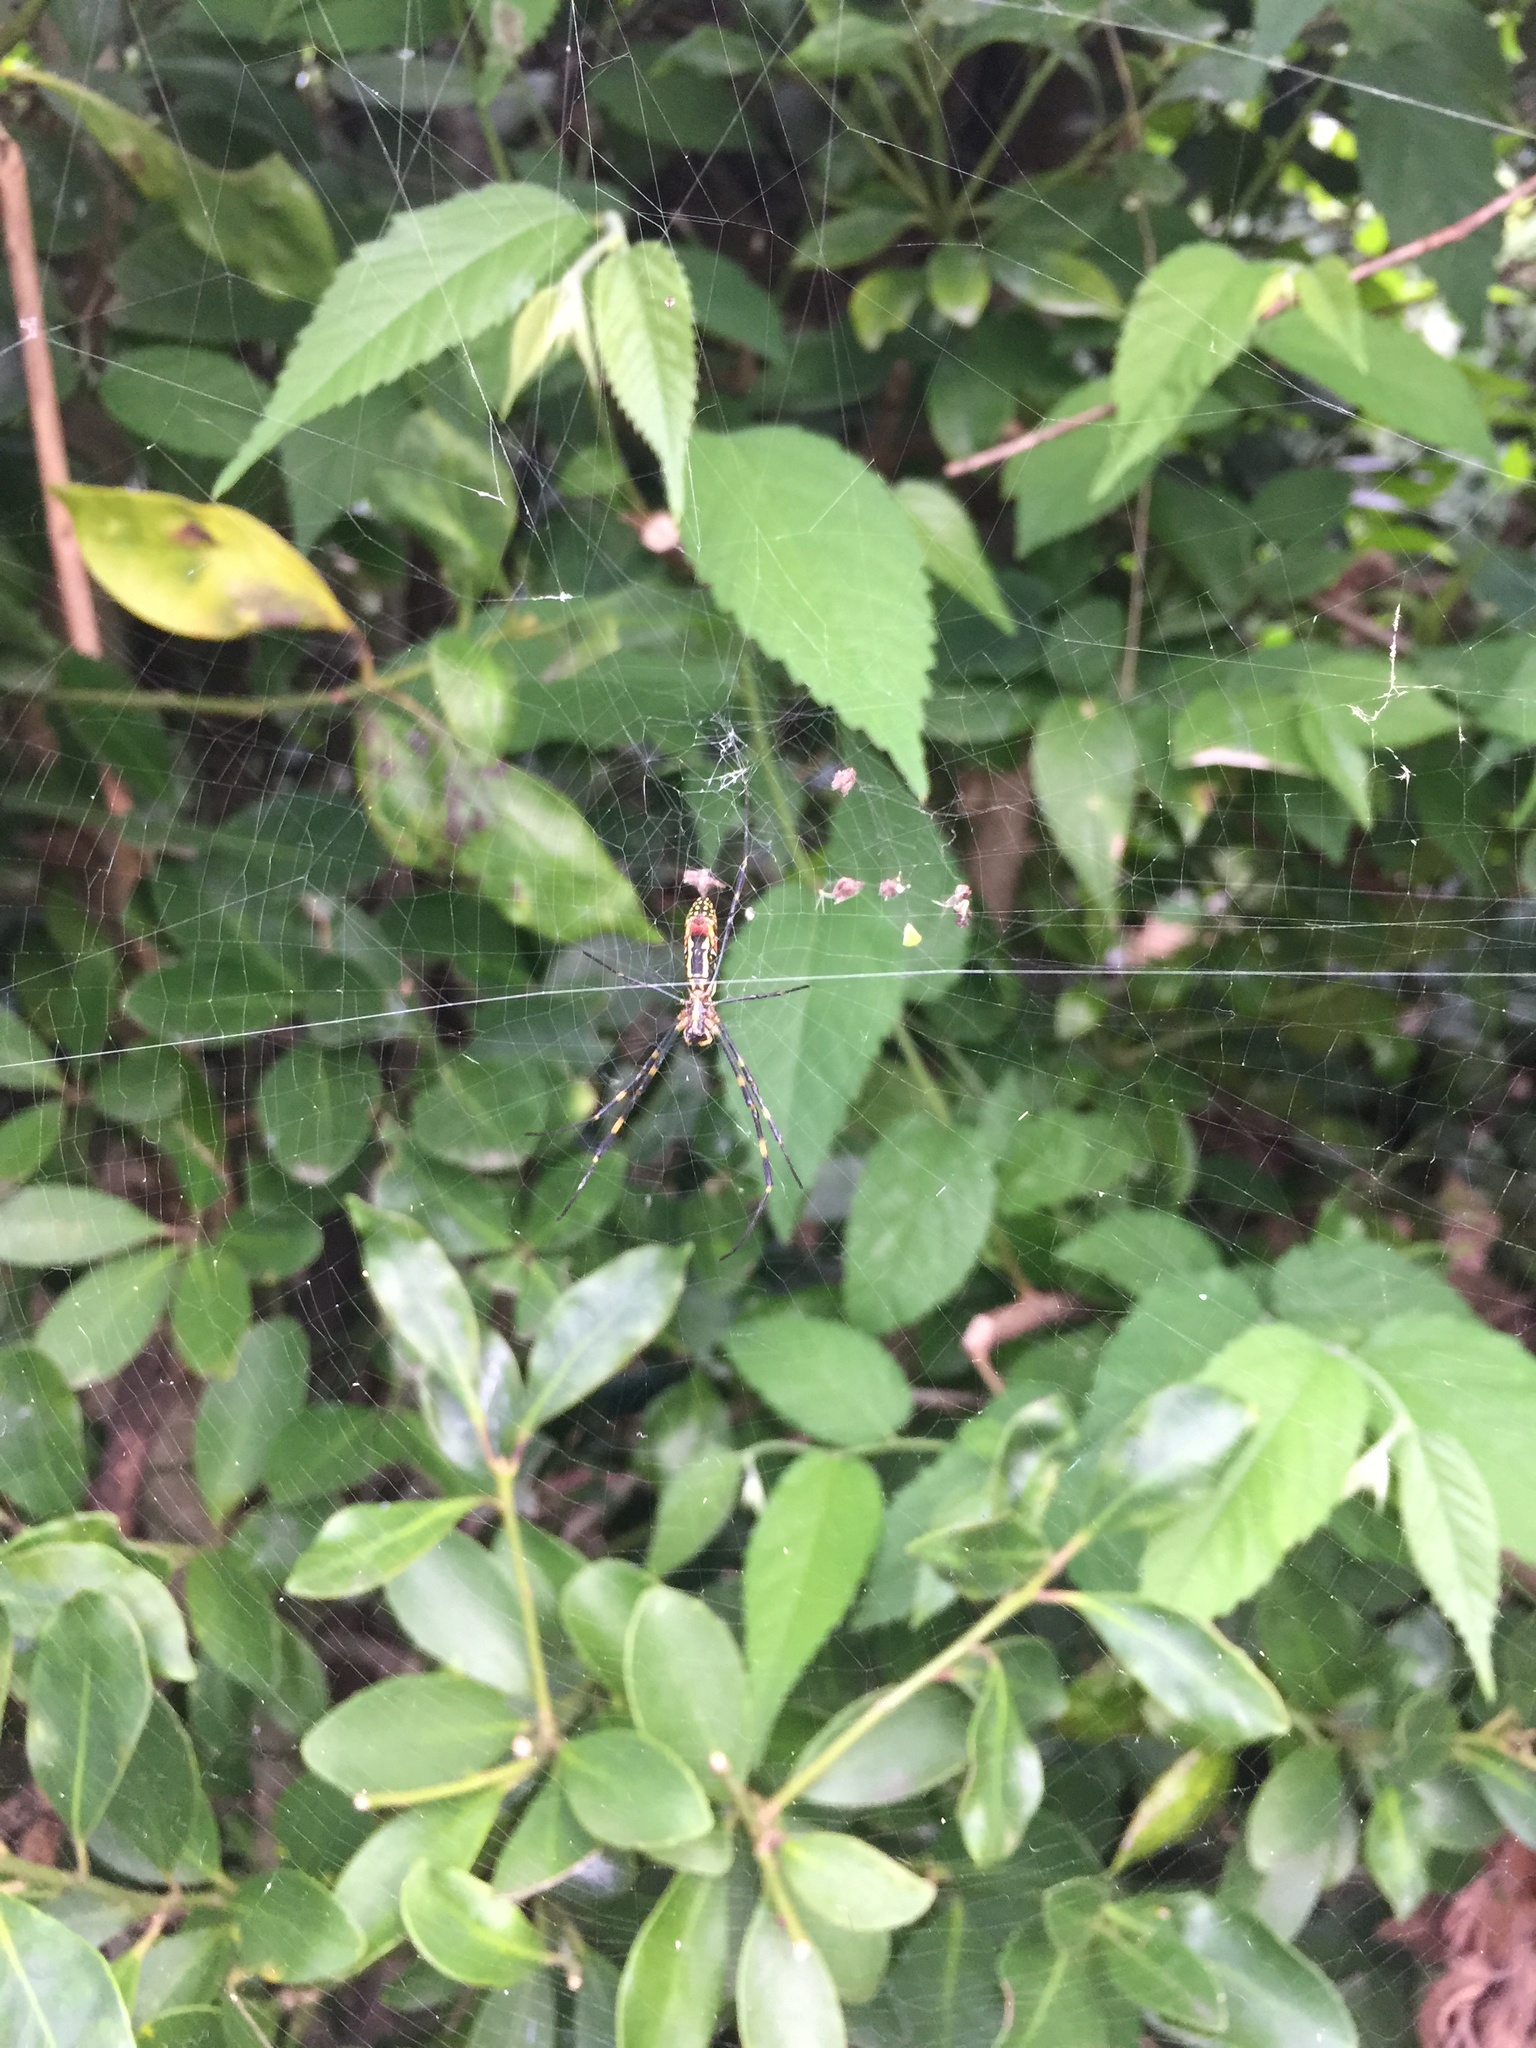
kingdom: Animalia
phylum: Arthropoda
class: Arachnida
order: Araneae
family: Araneidae
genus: Trichonephila
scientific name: Trichonephila clavata
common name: Jorō spider
